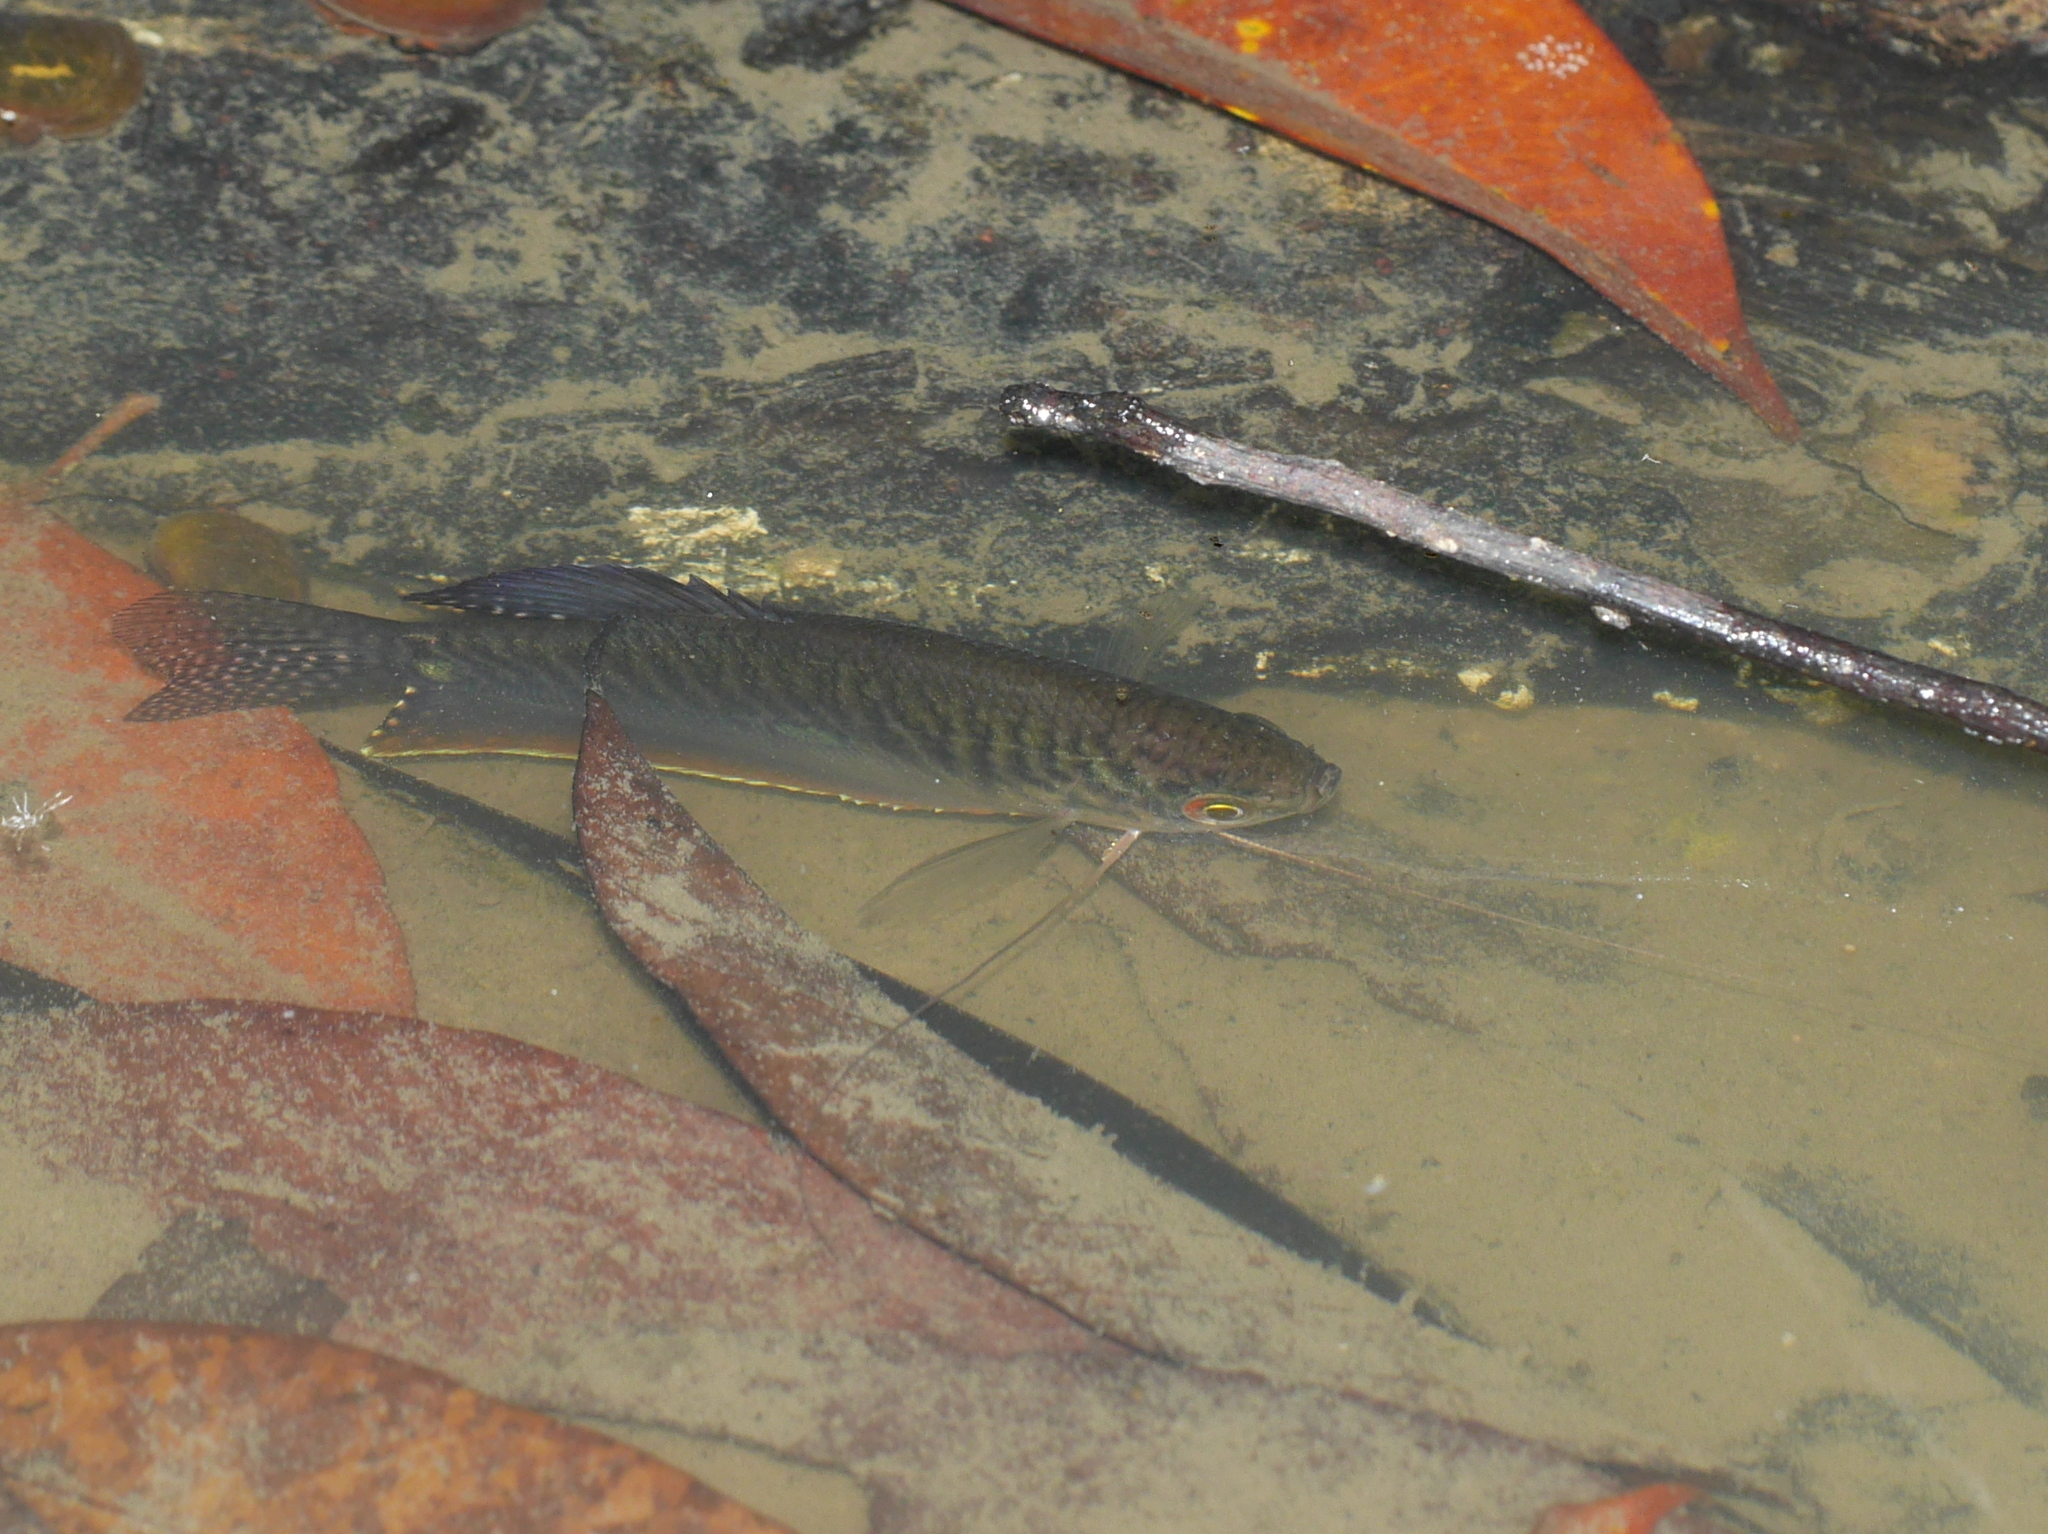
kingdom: Animalia
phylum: Chordata
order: Perciformes
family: Osphronemidae
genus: Trichopodus
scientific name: Trichopodus trichopterus
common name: Blue gourami
